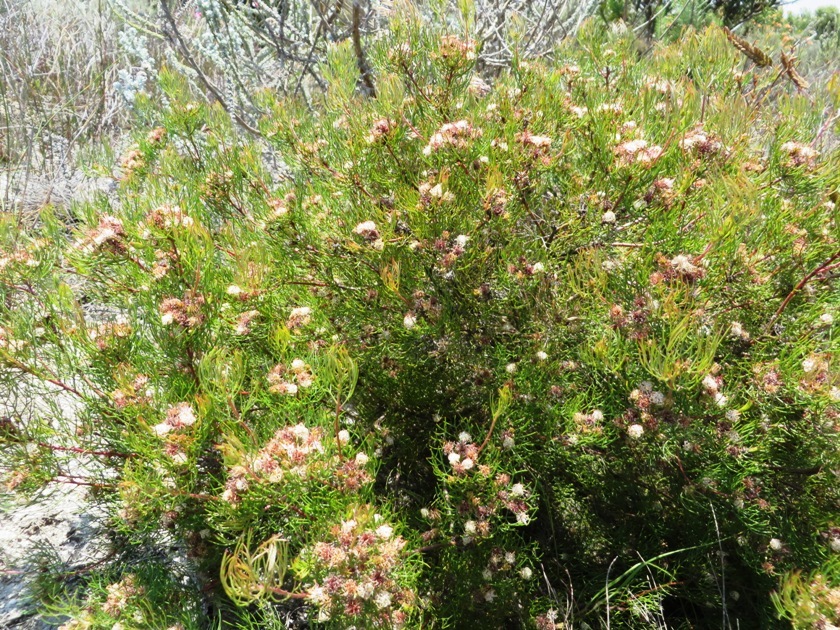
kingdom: Plantae
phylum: Tracheophyta
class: Magnoliopsida
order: Proteales
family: Proteaceae
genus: Serruria
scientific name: Serruria inconspicua
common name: Cryptic spiderhead
